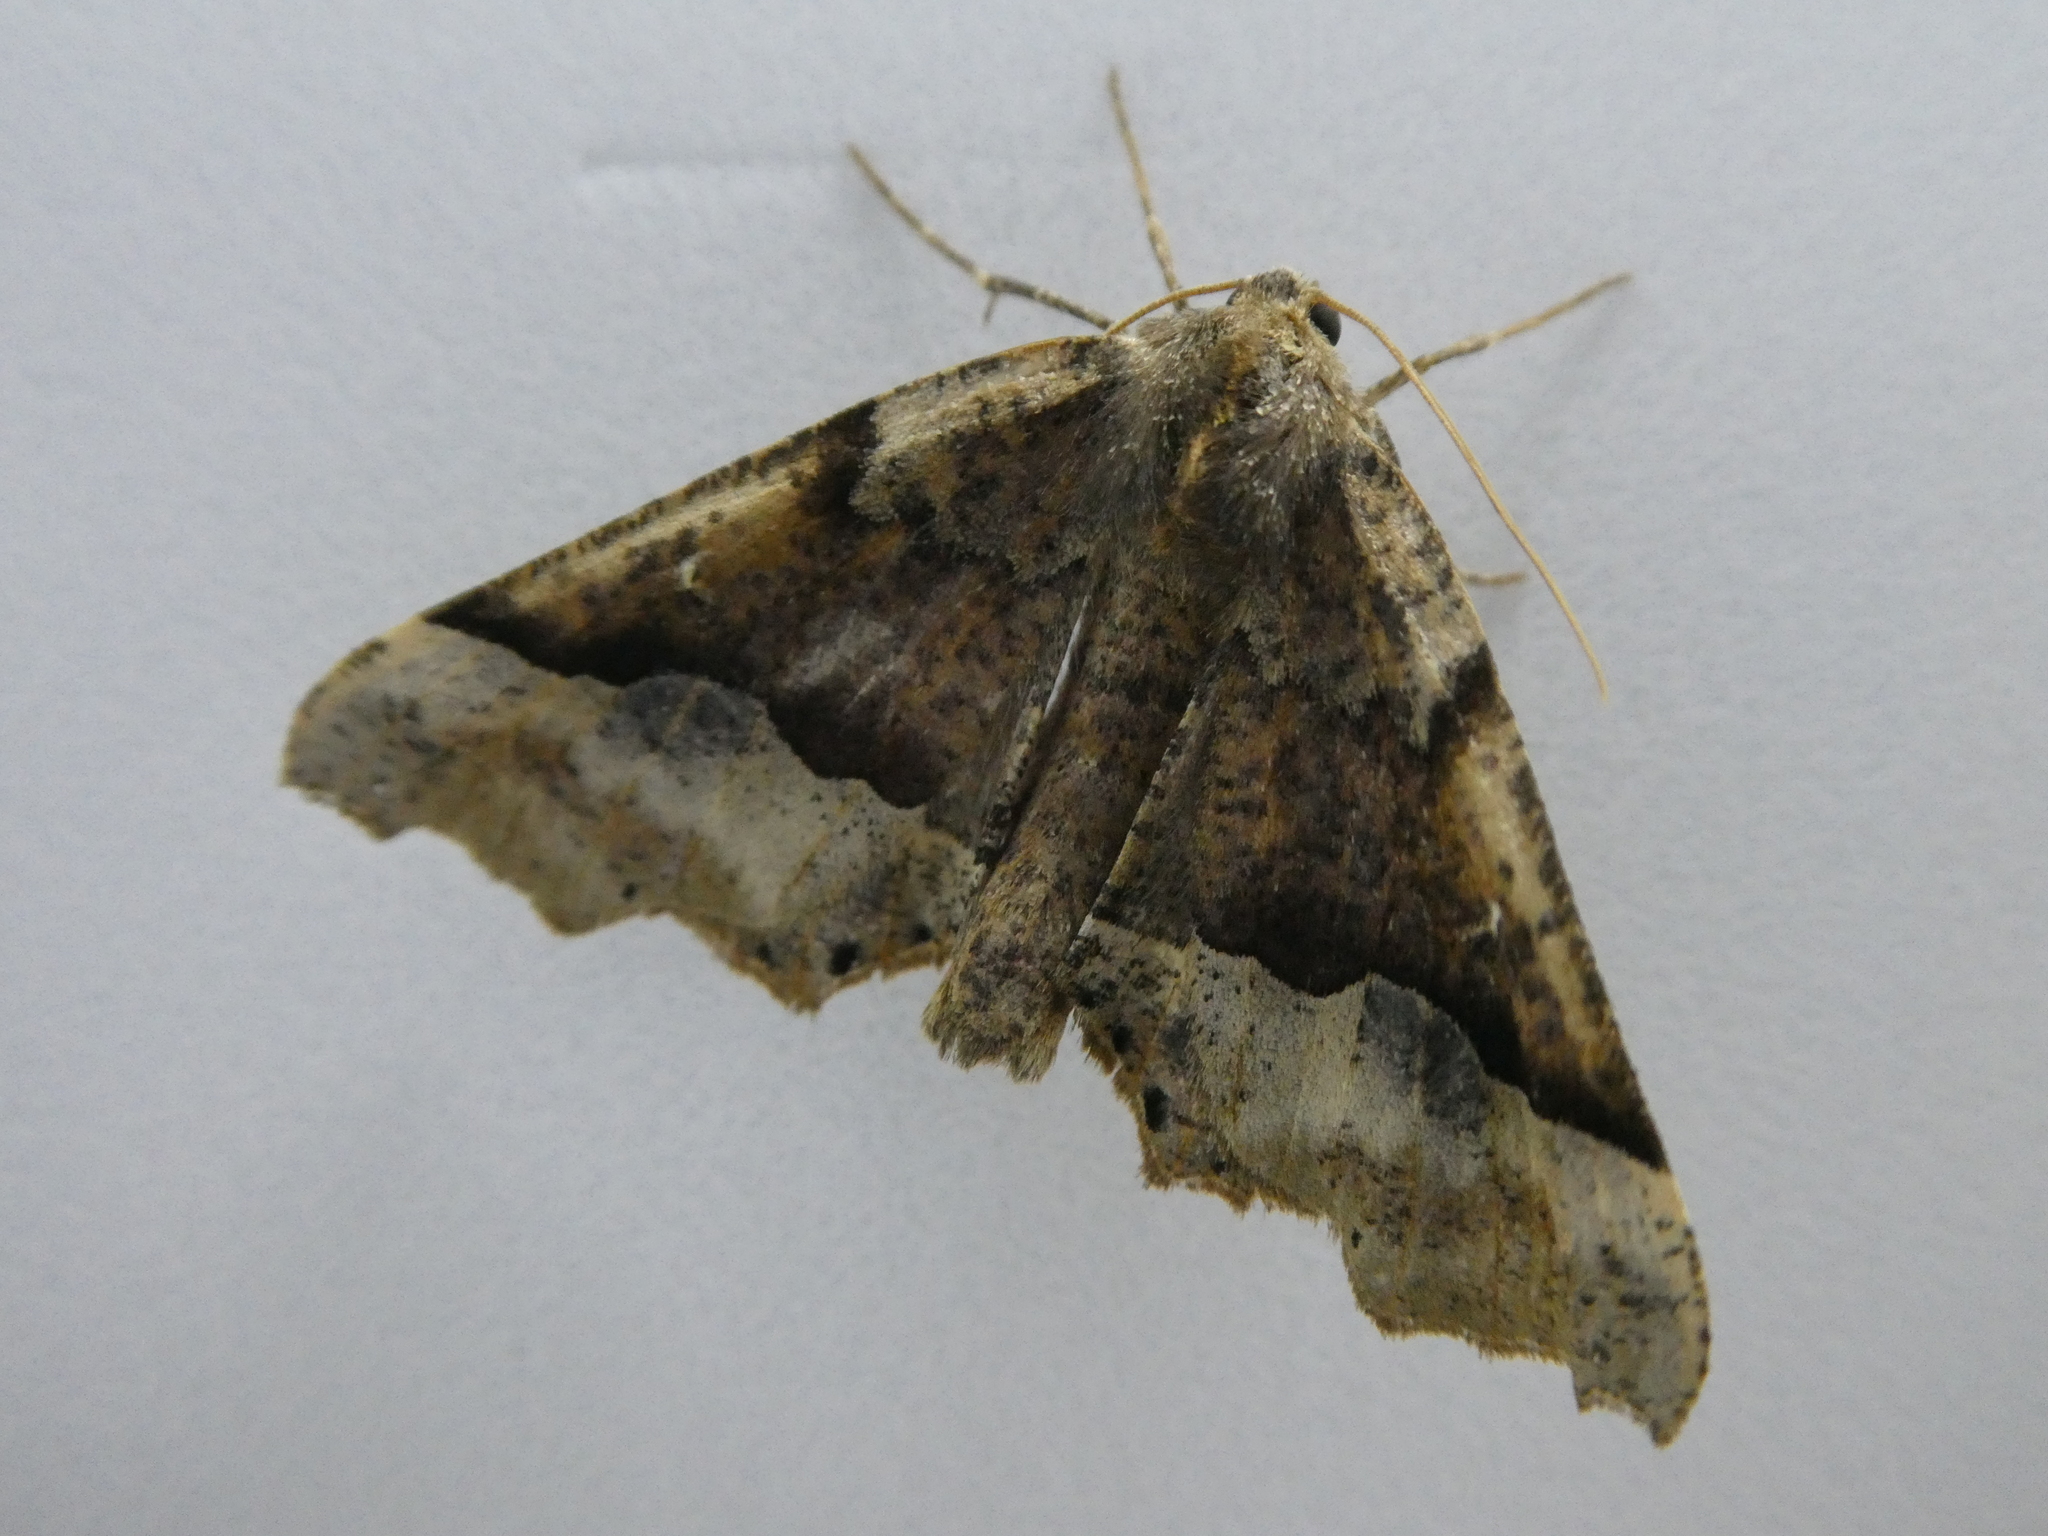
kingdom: Animalia
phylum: Arthropoda
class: Insecta
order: Lepidoptera
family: Geometridae
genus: Pero
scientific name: Pero morrisonaria
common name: Morrison's pero
